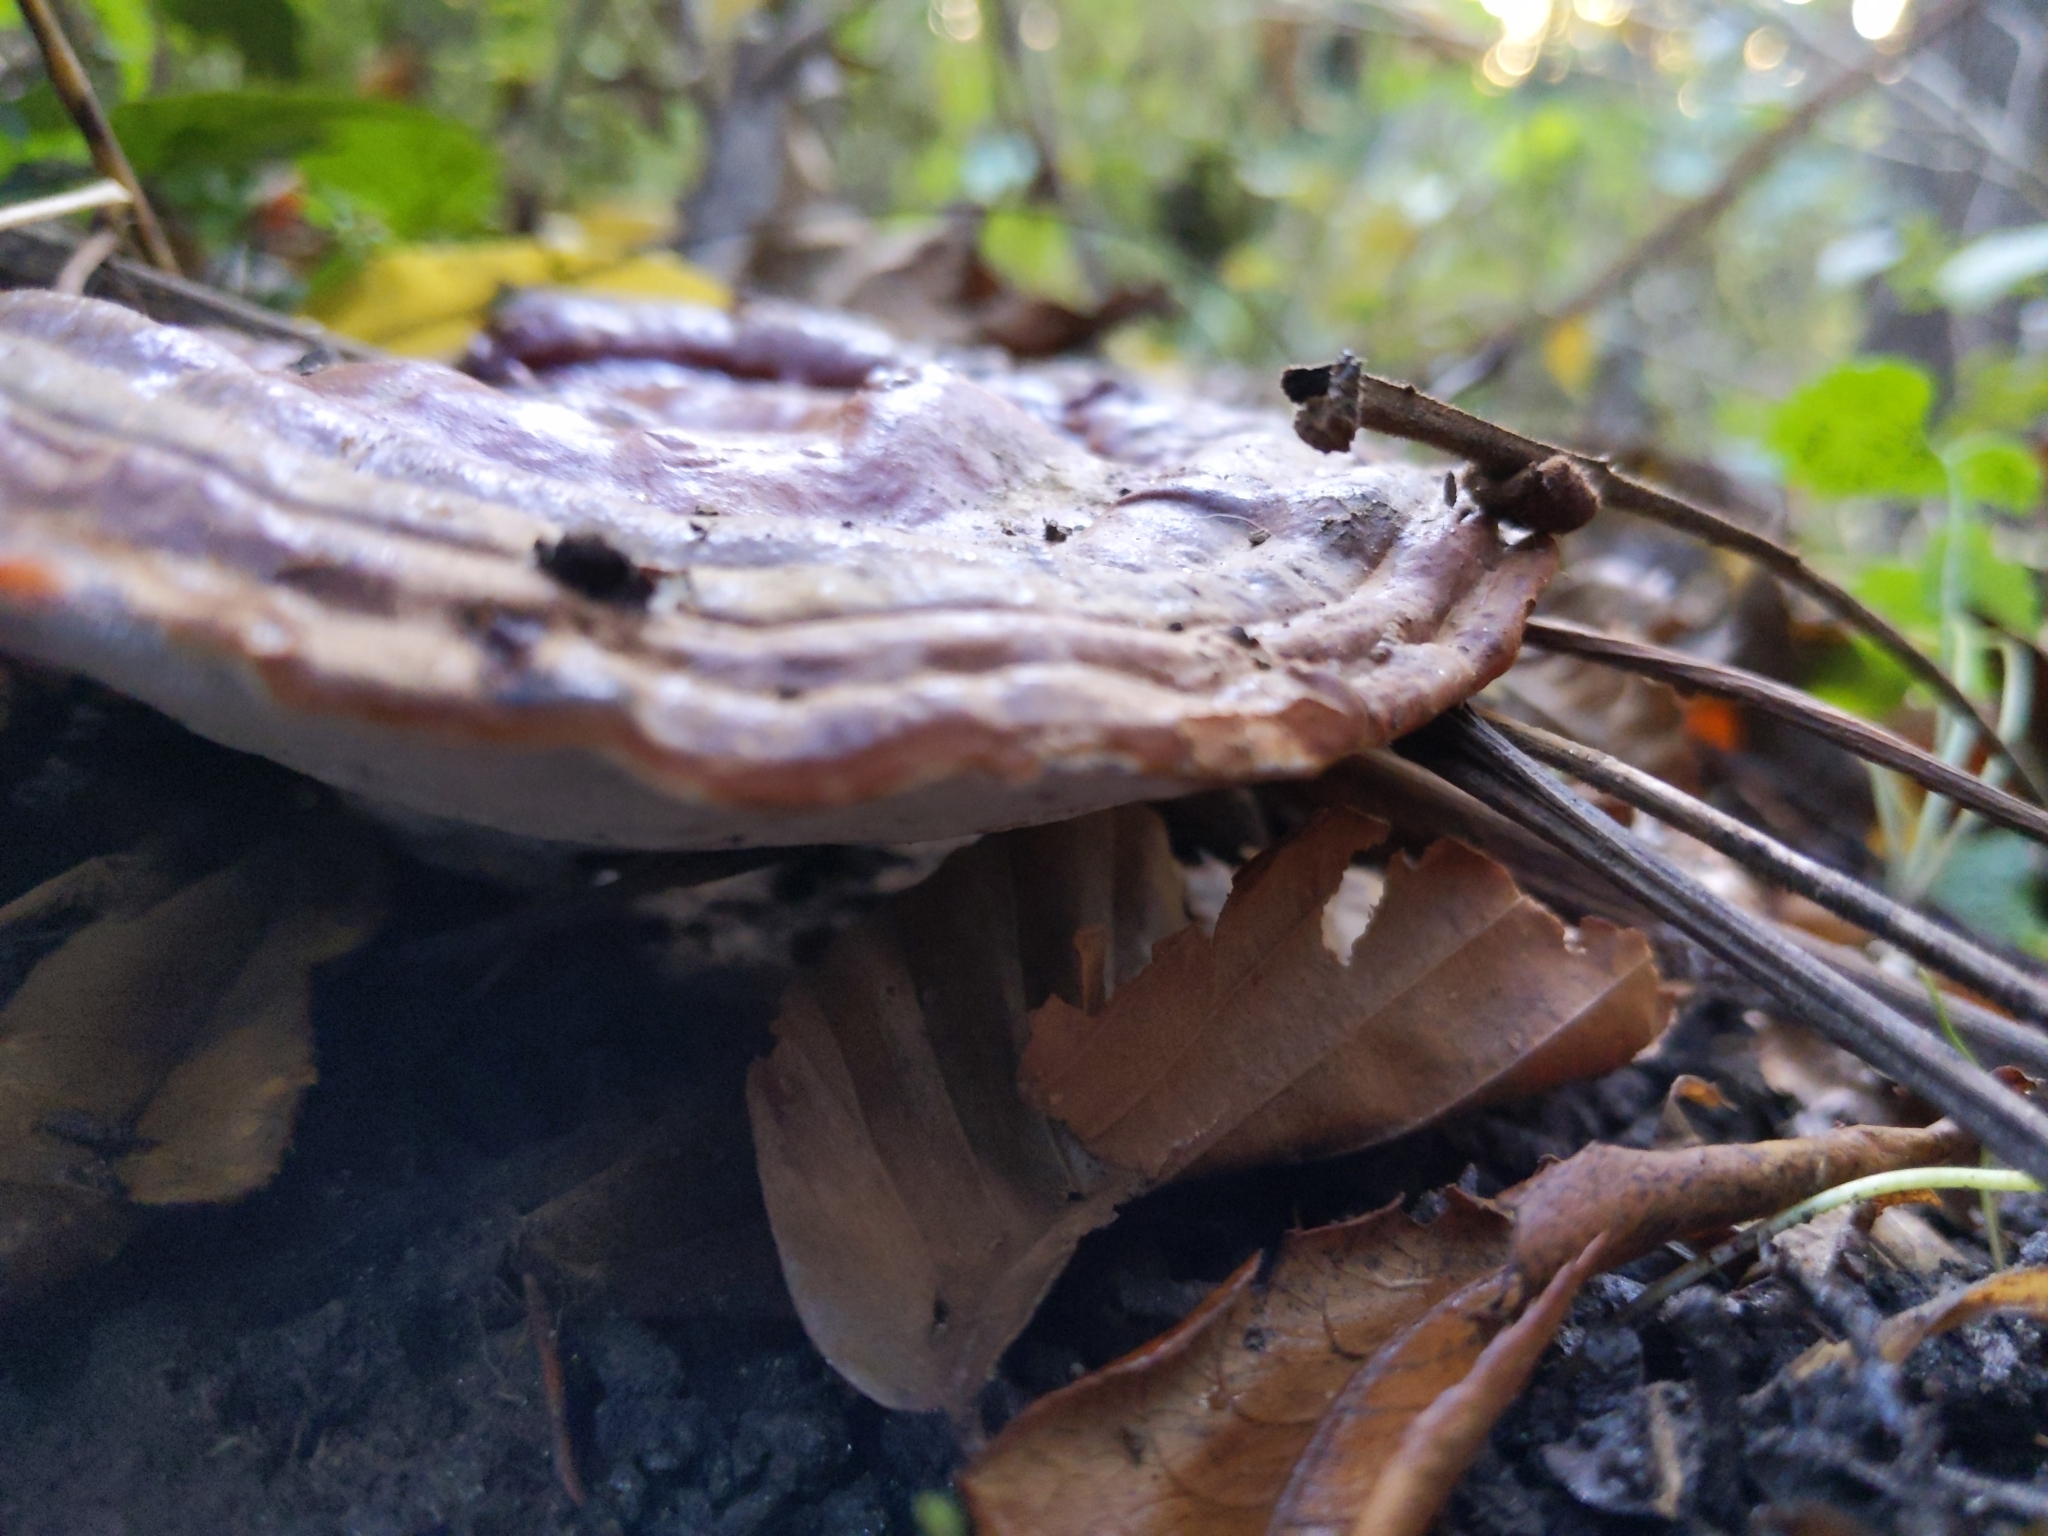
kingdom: Fungi
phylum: Basidiomycota
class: Agaricomycetes
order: Polyporales
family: Polyporaceae
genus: Ganoderma
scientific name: Ganoderma resinaceum
